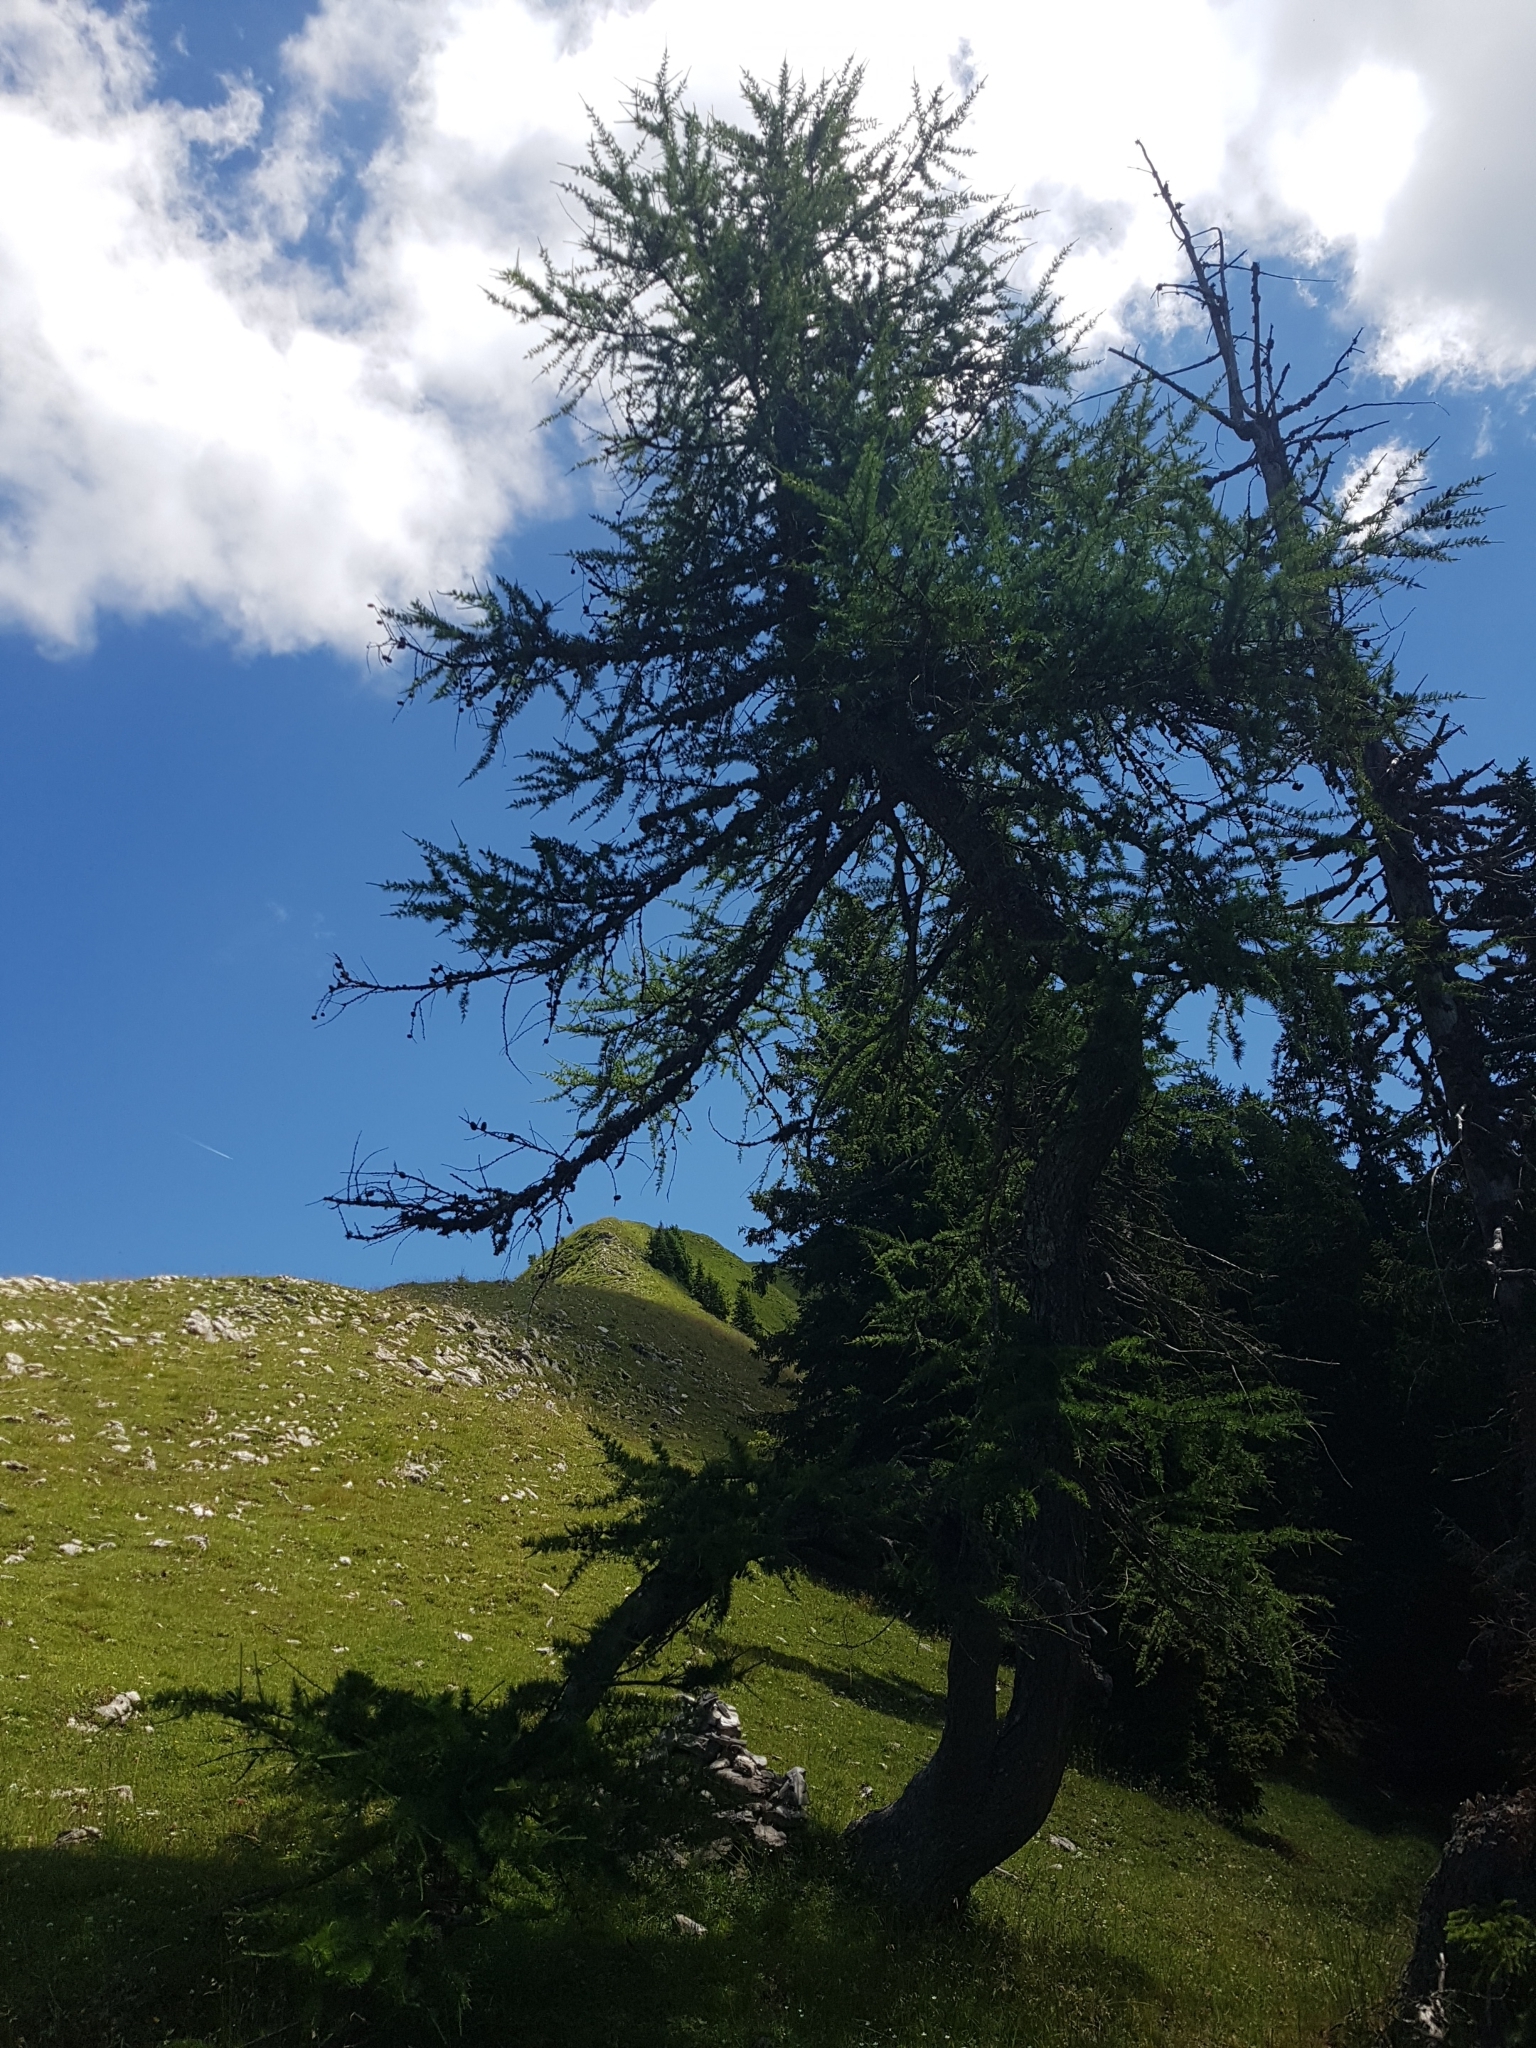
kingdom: Plantae
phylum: Tracheophyta
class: Pinopsida
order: Pinales
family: Pinaceae
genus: Larix
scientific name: Larix decidua
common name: European larch
